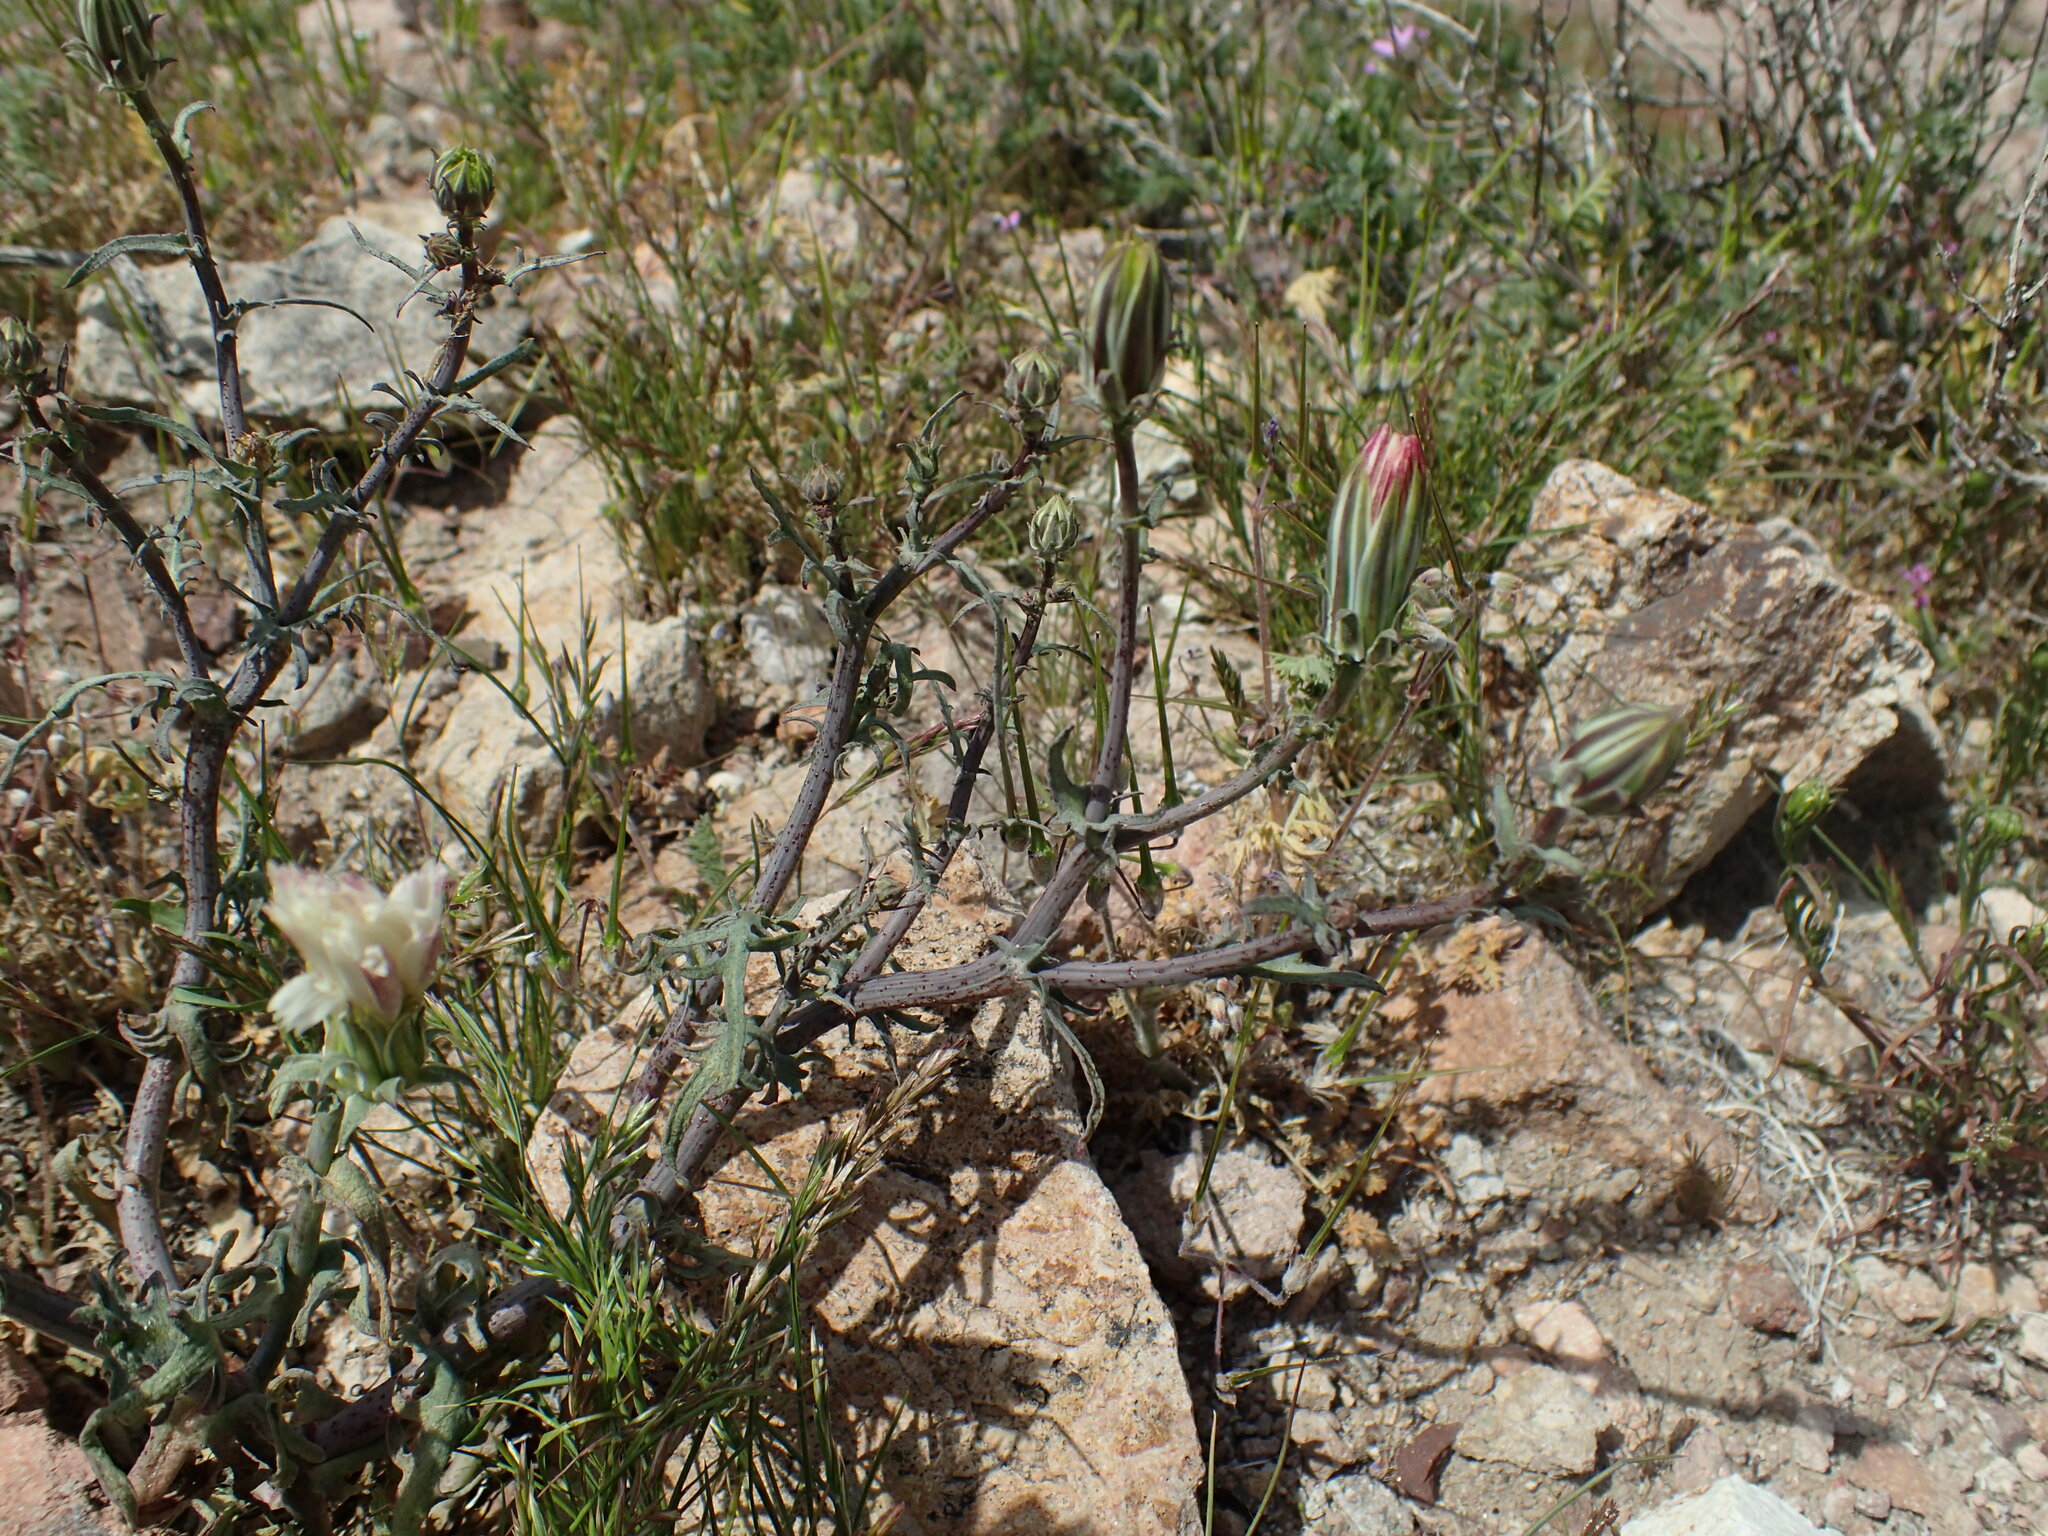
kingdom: Plantae
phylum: Tracheophyta
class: Magnoliopsida
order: Asterales
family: Asteraceae
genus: Rafinesquia
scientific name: Rafinesquia neomexicana
